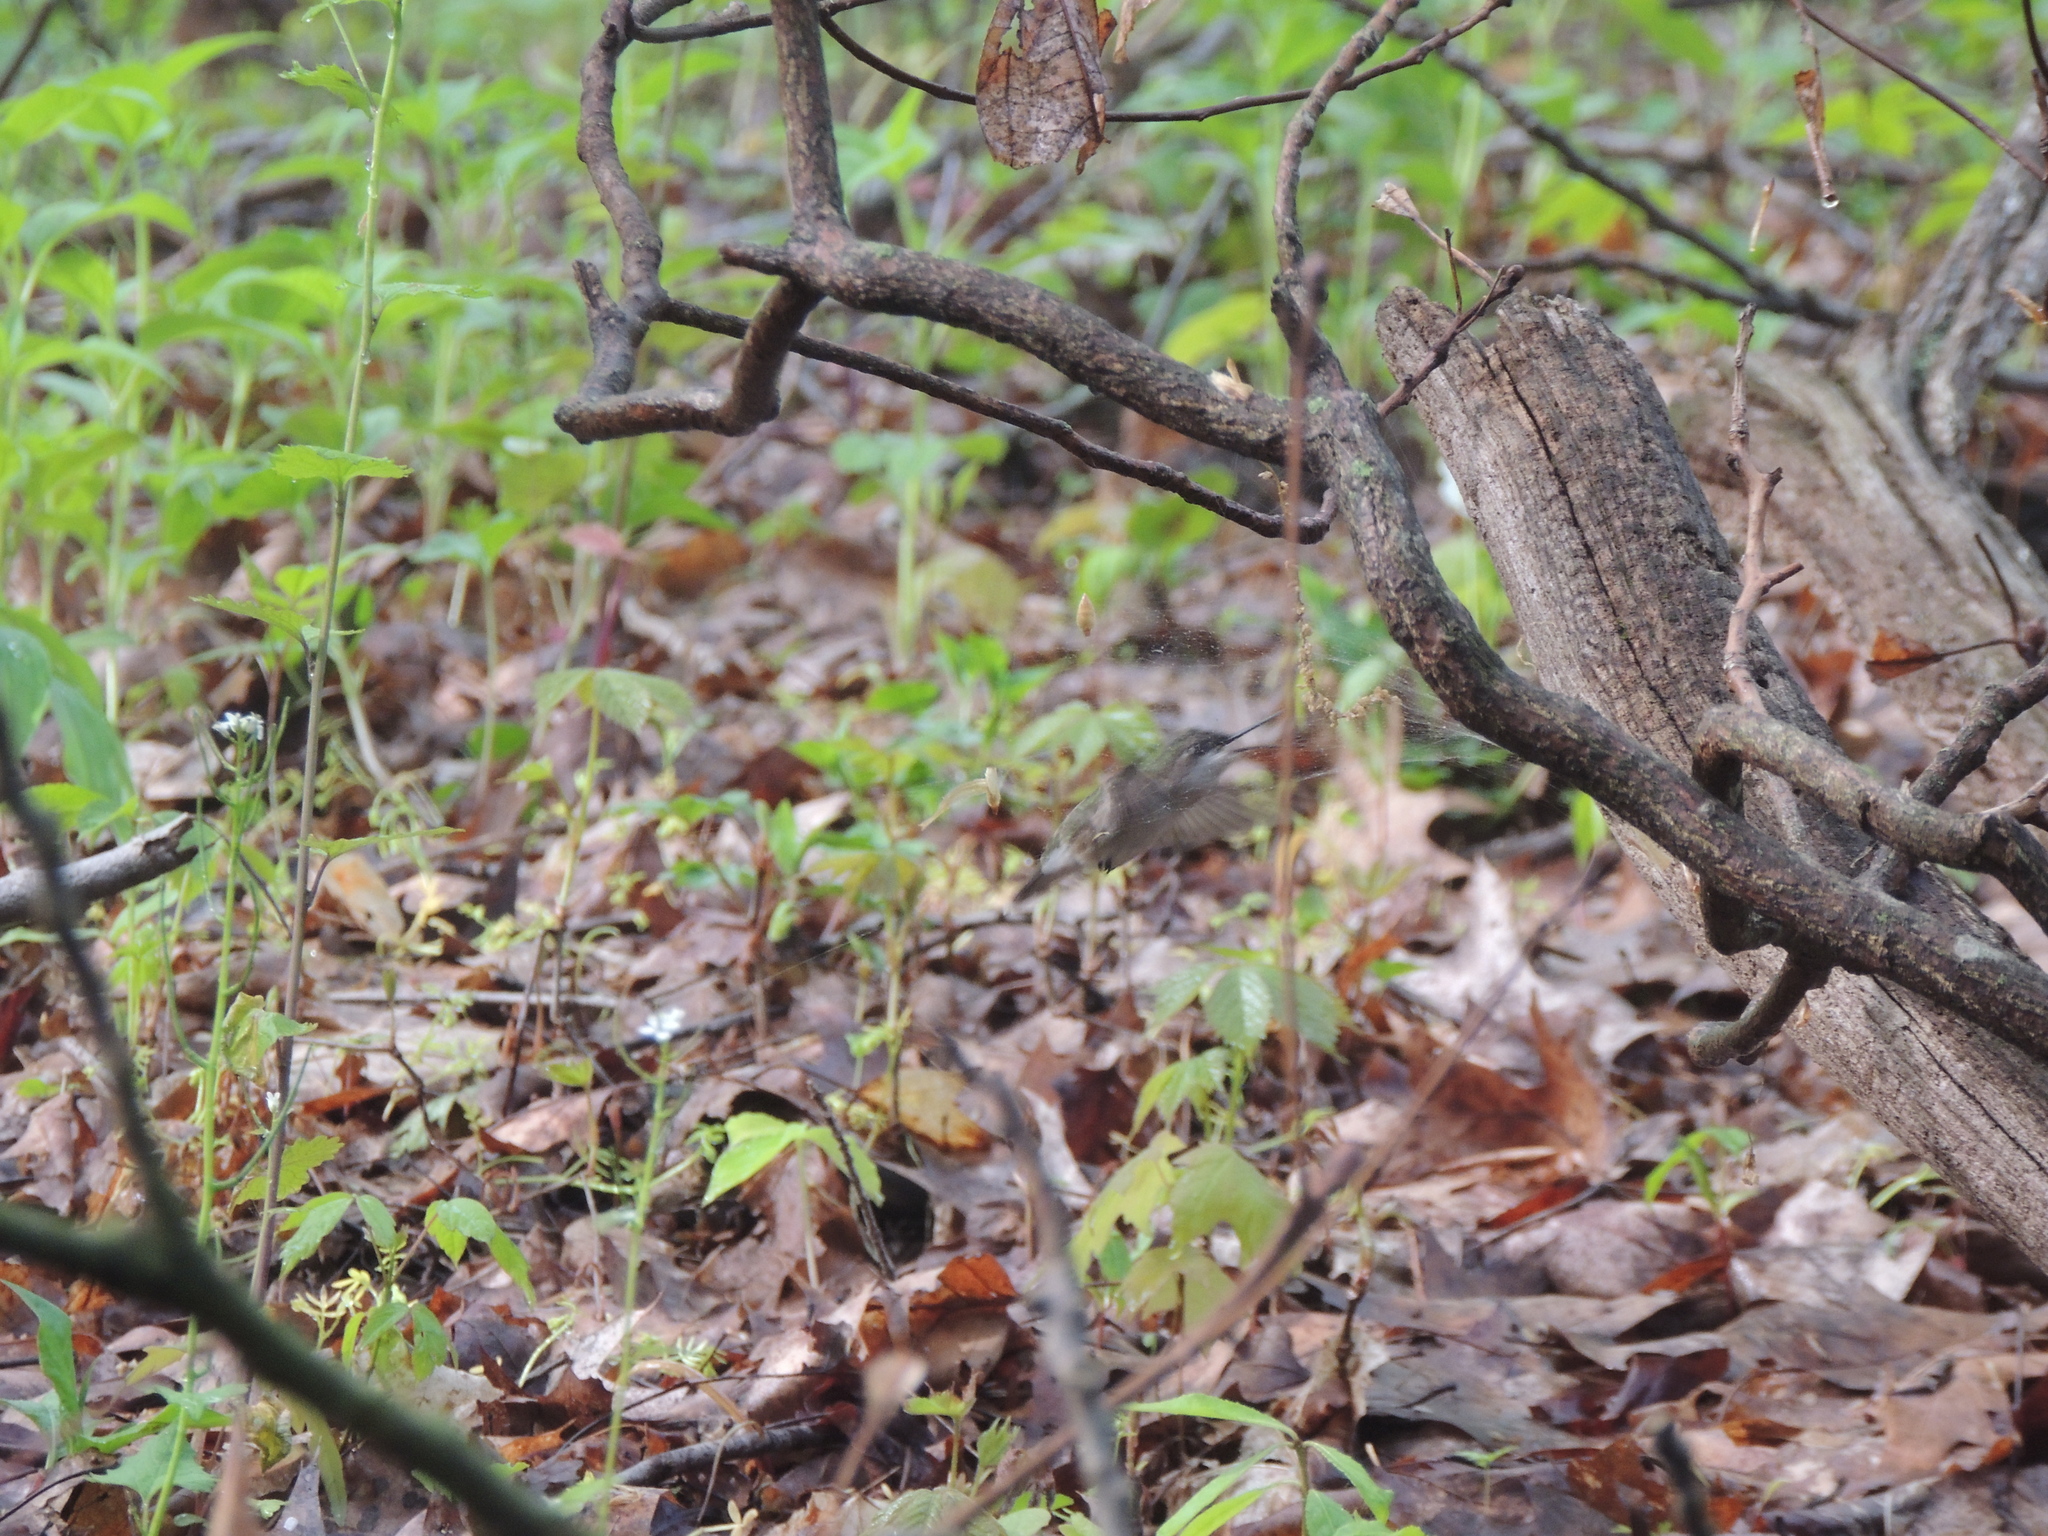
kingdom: Animalia
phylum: Chordata
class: Aves
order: Apodiformes
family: Trochilidae
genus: Archilochus
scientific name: Archilochus colubris
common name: Ruby-throated hummingbird
